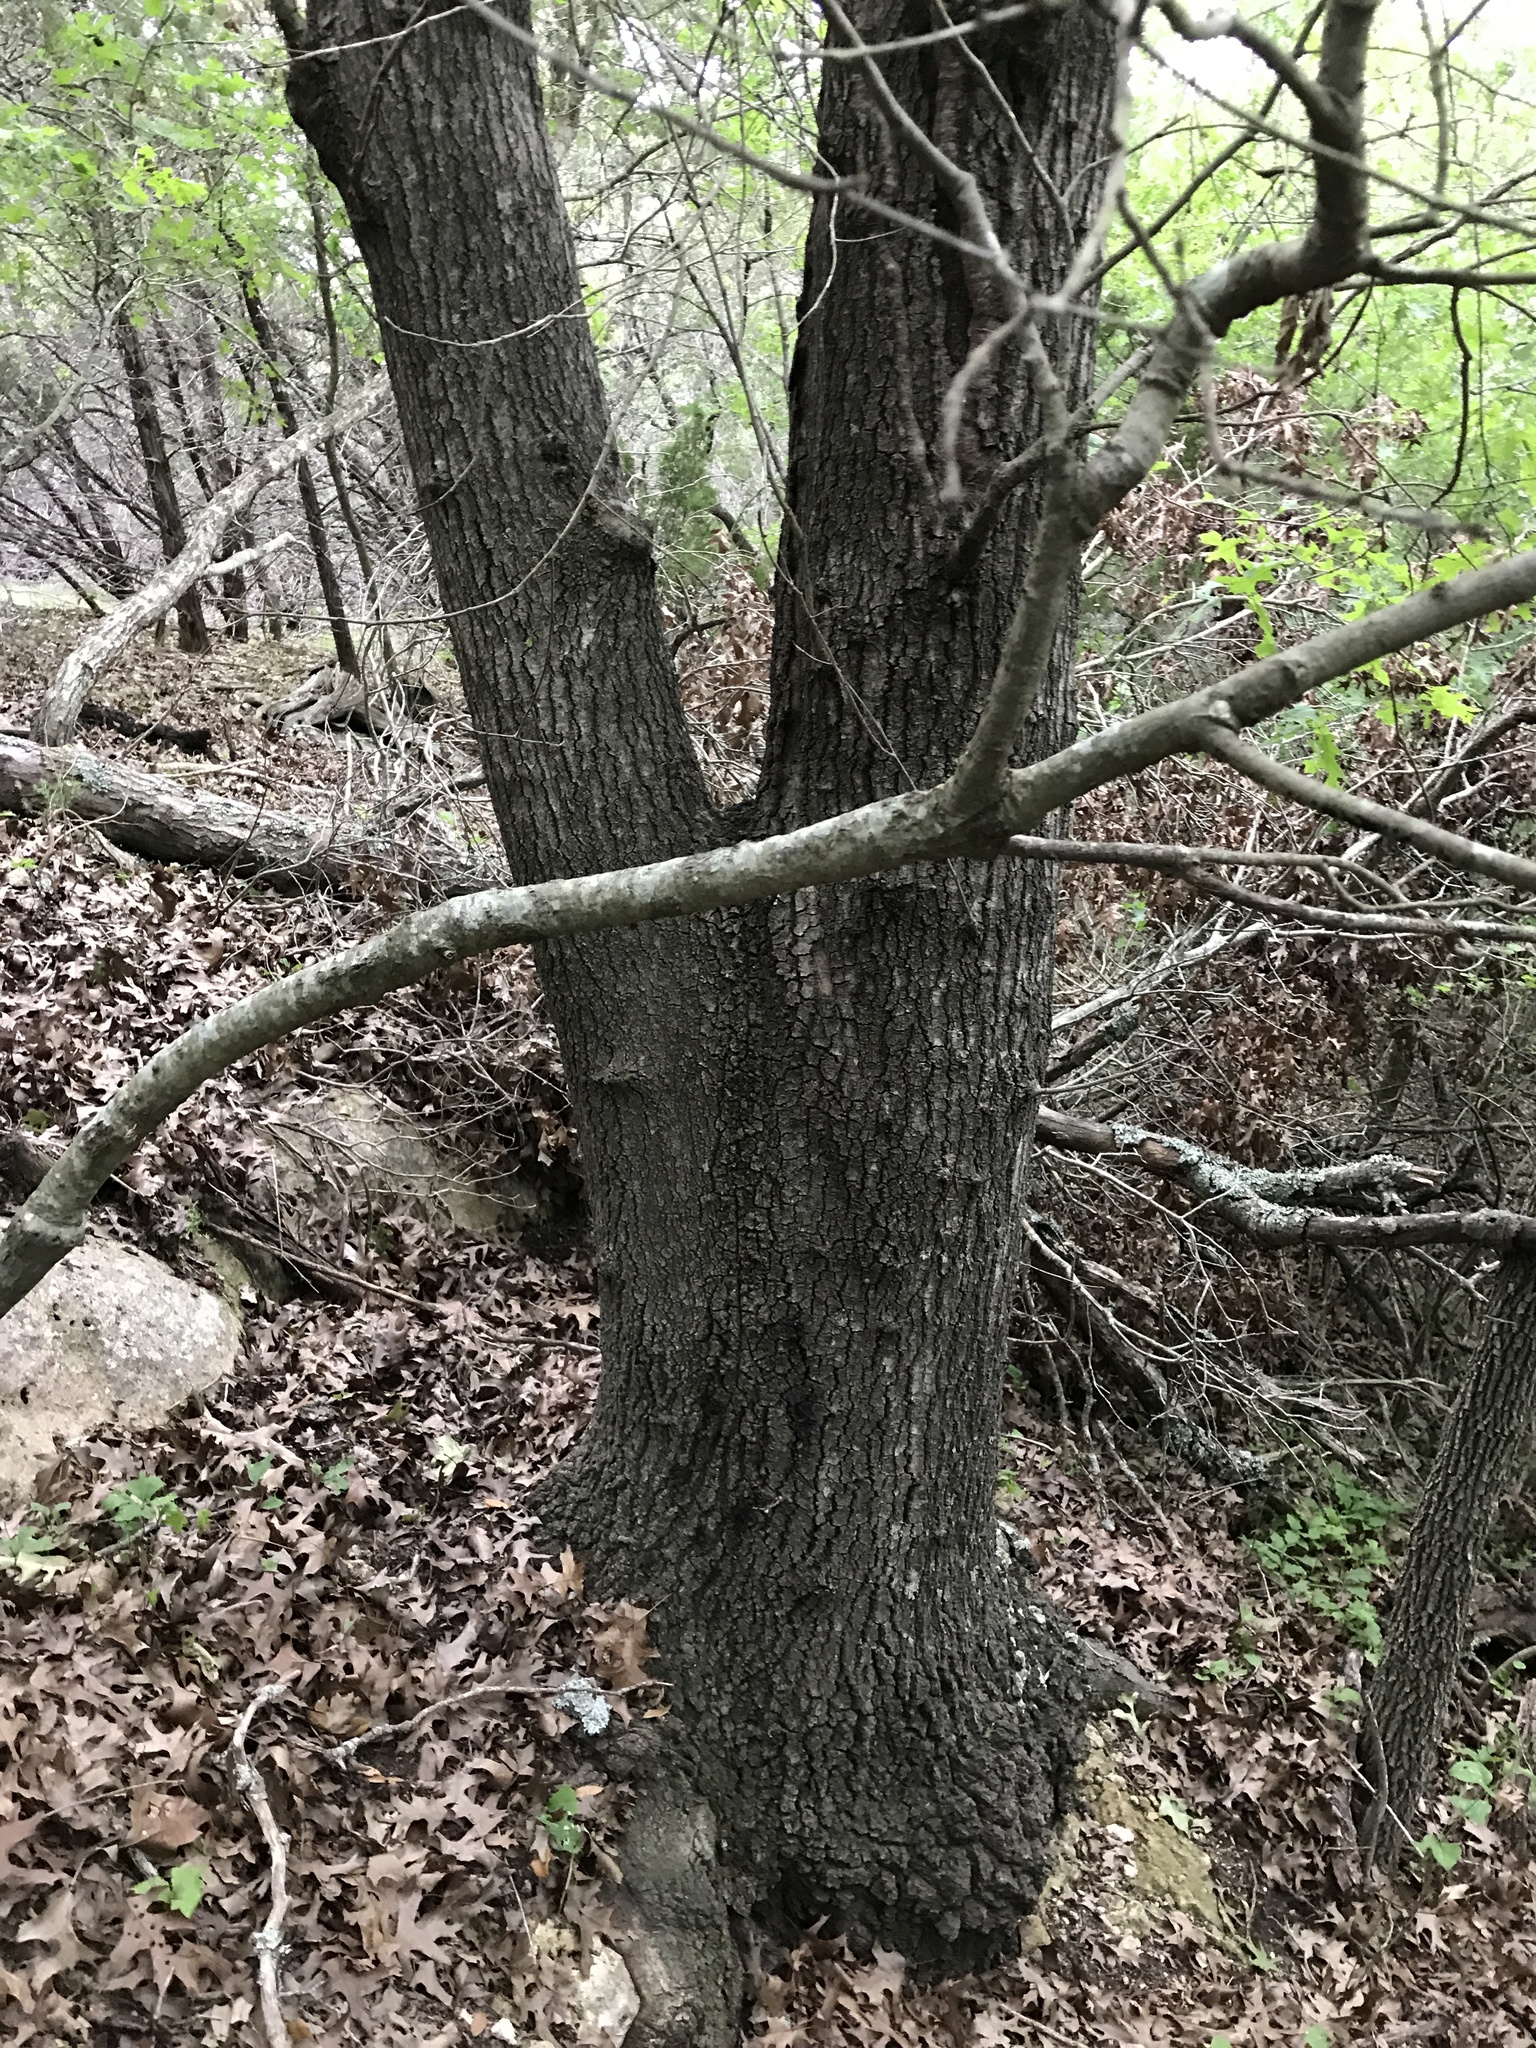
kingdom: Plantae
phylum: Tracheophyta
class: Magnoliopsida
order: Fagales
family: Fagaceae
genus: Quercus
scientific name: Quercus buckleyi
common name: Buckley oak
